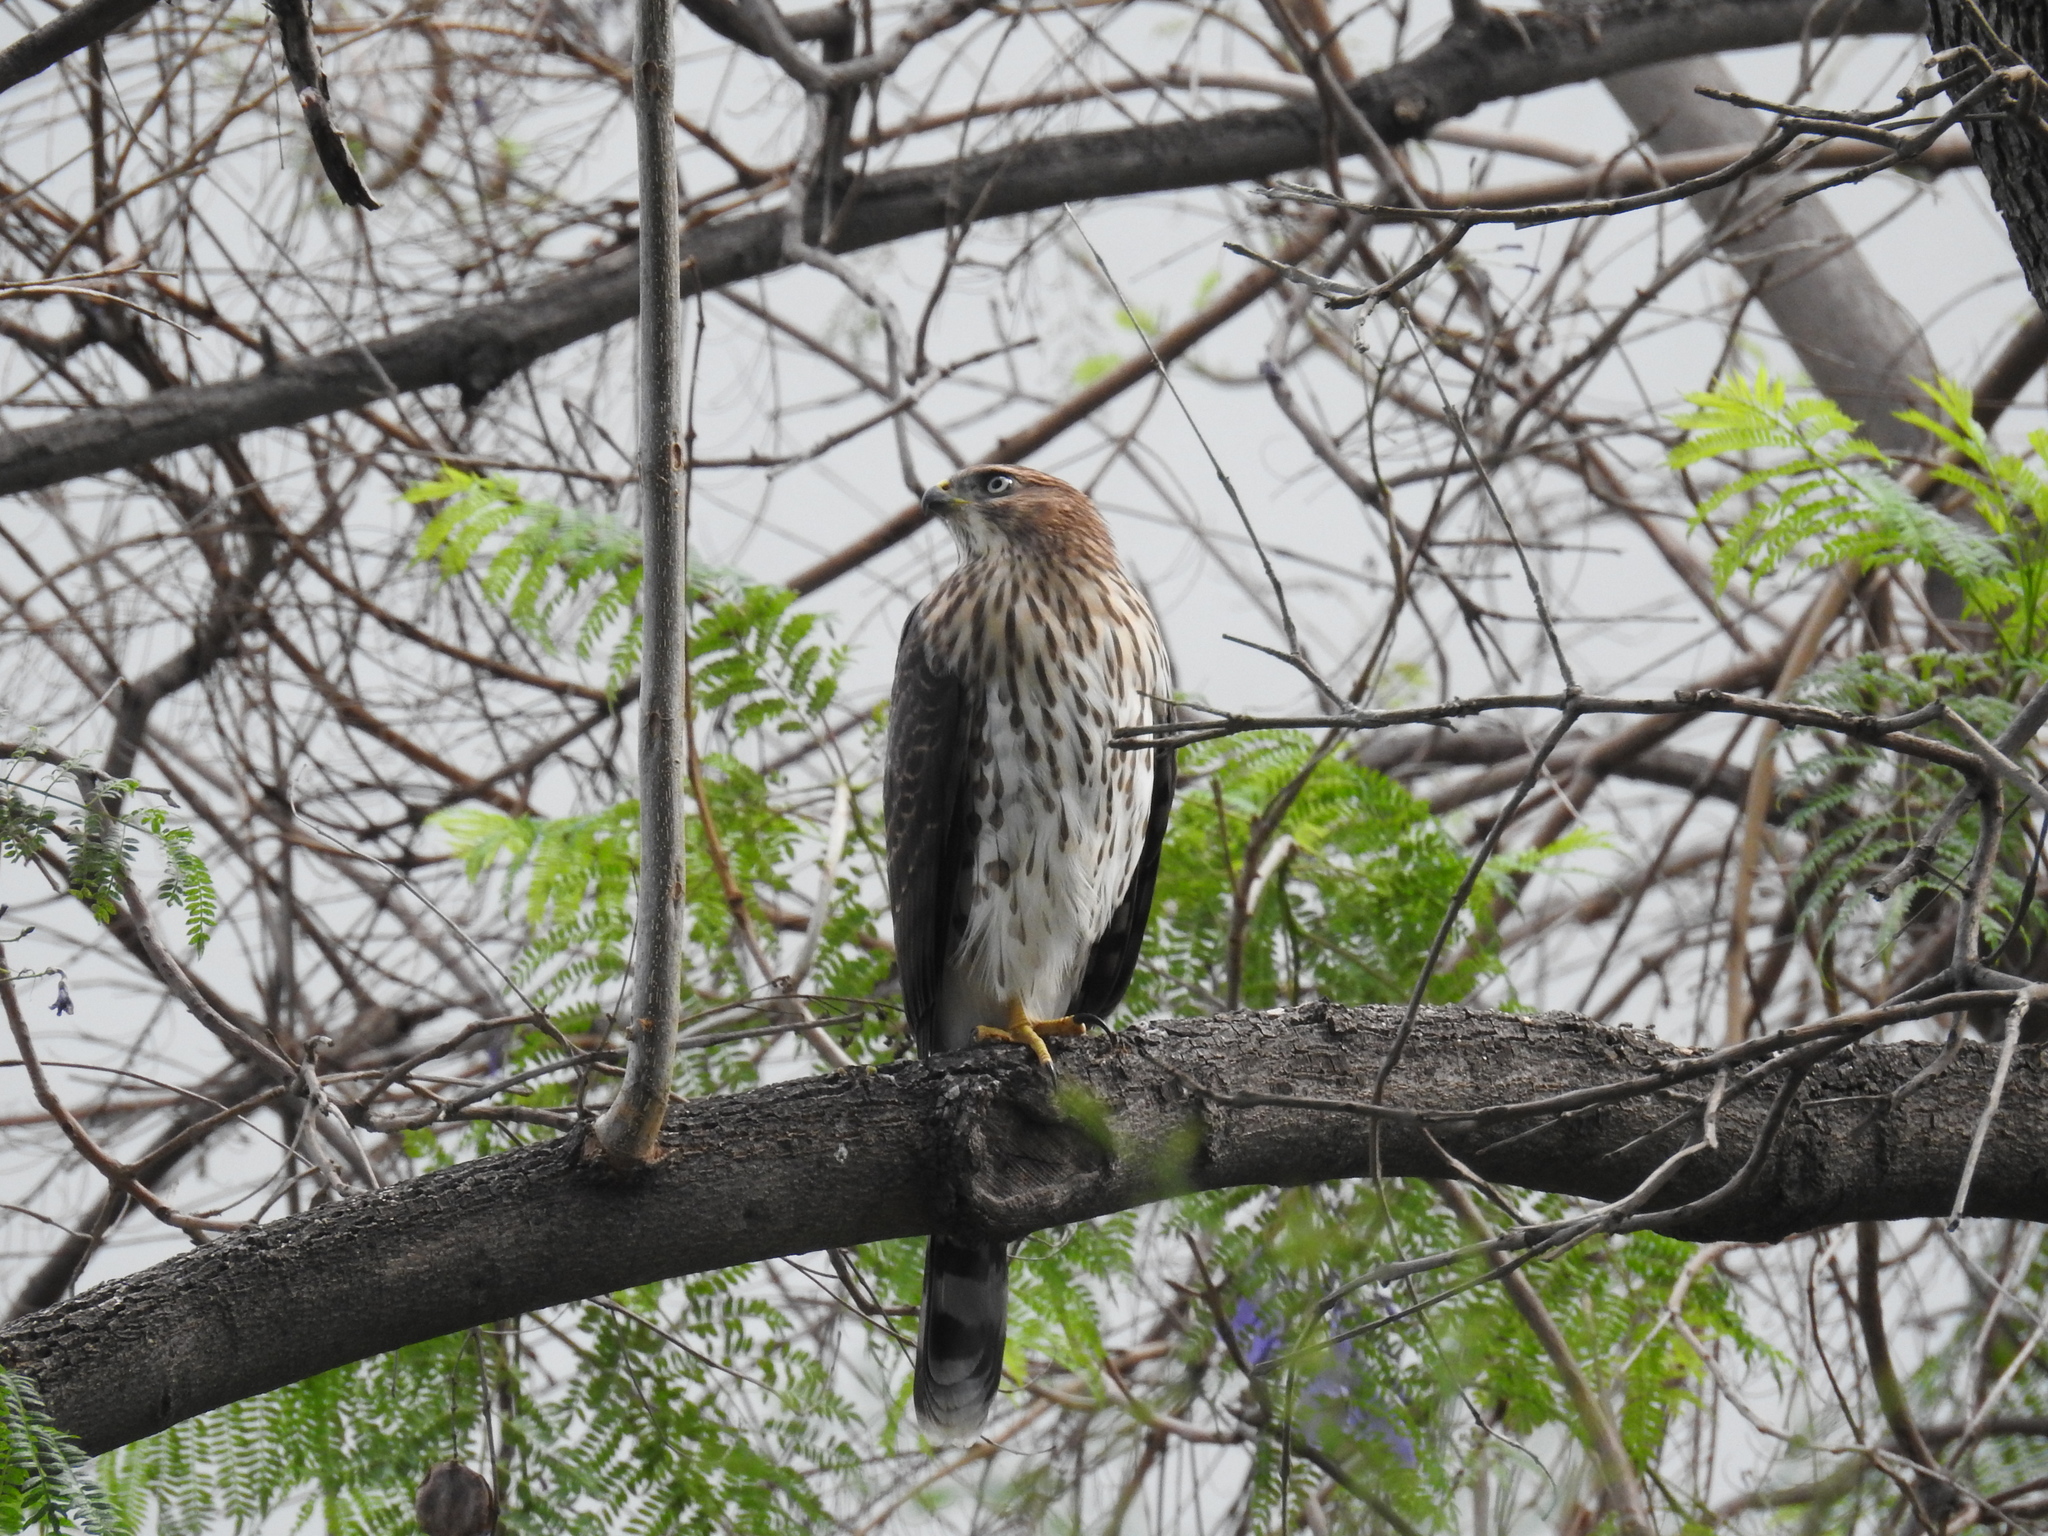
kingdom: Animalia
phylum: Chordata
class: Aves
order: Accipitriformes
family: Accipitridae
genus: Accipiter
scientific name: Accipiter cooperii
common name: Cooper's hawk
